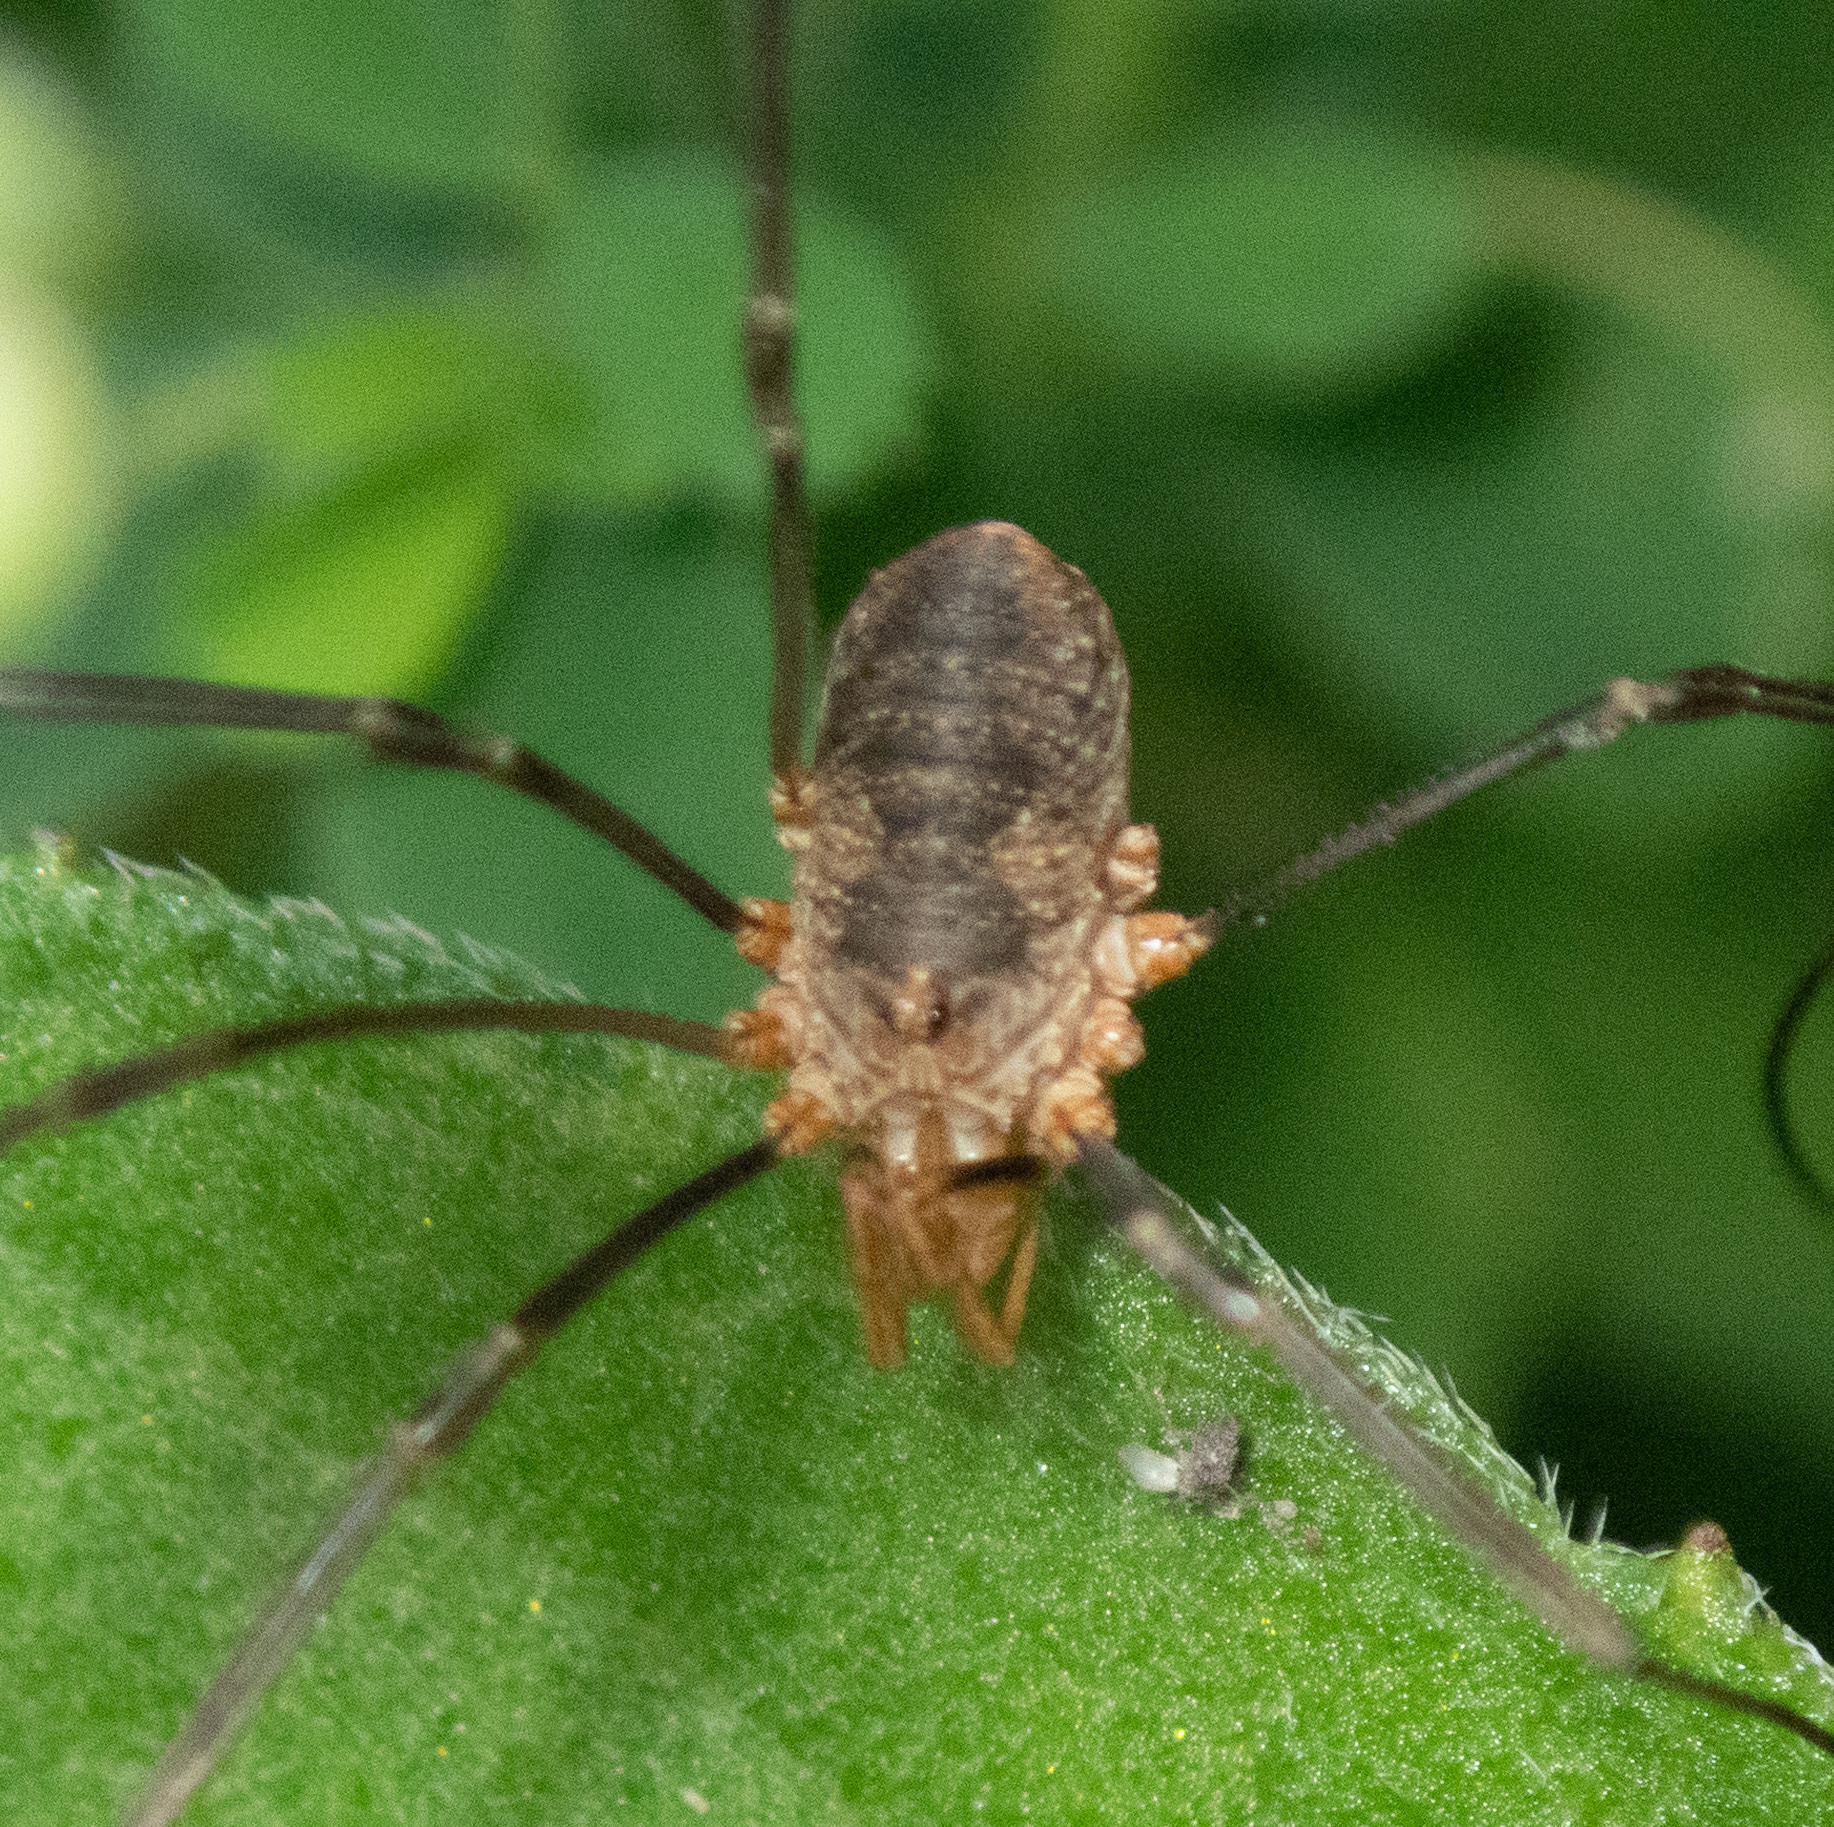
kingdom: Animalia
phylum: Arthropoda
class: Arachnida
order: Opiliones
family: Phalangiidae
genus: Phalangium
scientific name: Phalangium opilio
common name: Daddy longleg
